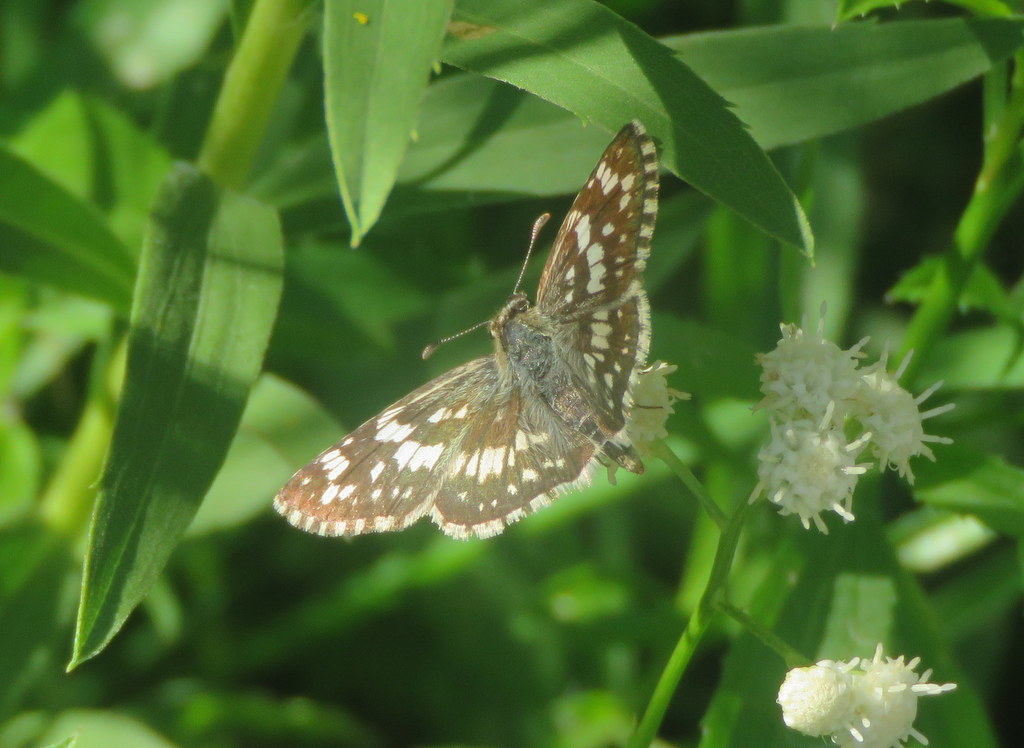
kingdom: Animalia
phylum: Arthropoda
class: Insecta
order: Lepidoptera
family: Hesperiidae
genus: Burnsius
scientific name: Burnsius orcynoides
